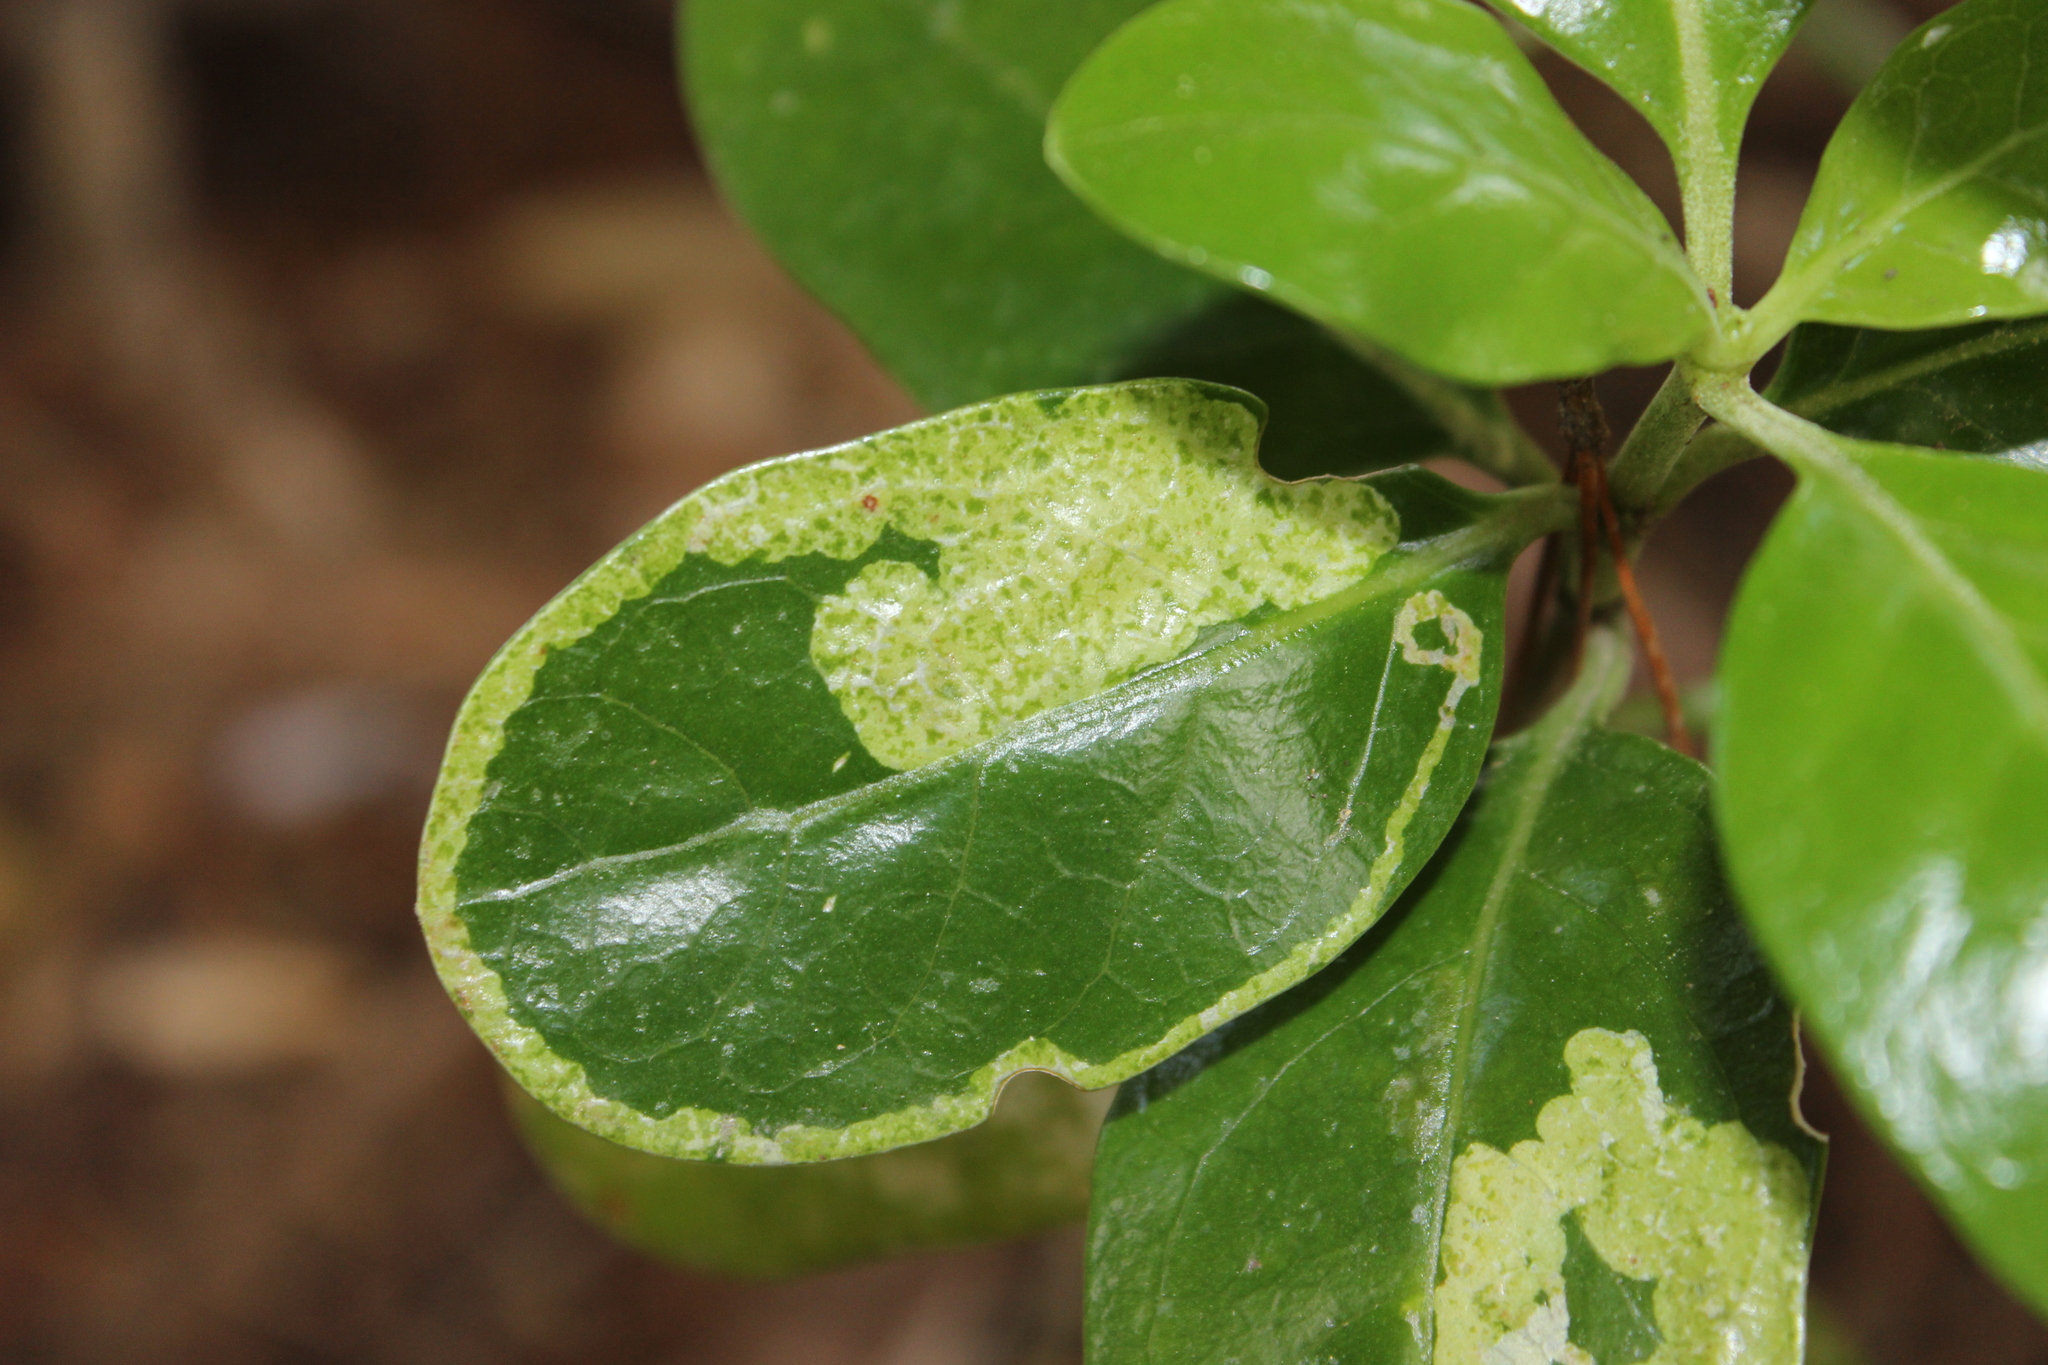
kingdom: Animalia
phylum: Arthropoda
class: Insecta
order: Lepidoptera
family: Gracillariidae
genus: Corythoxestis
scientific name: Corythoxestis zorionella
